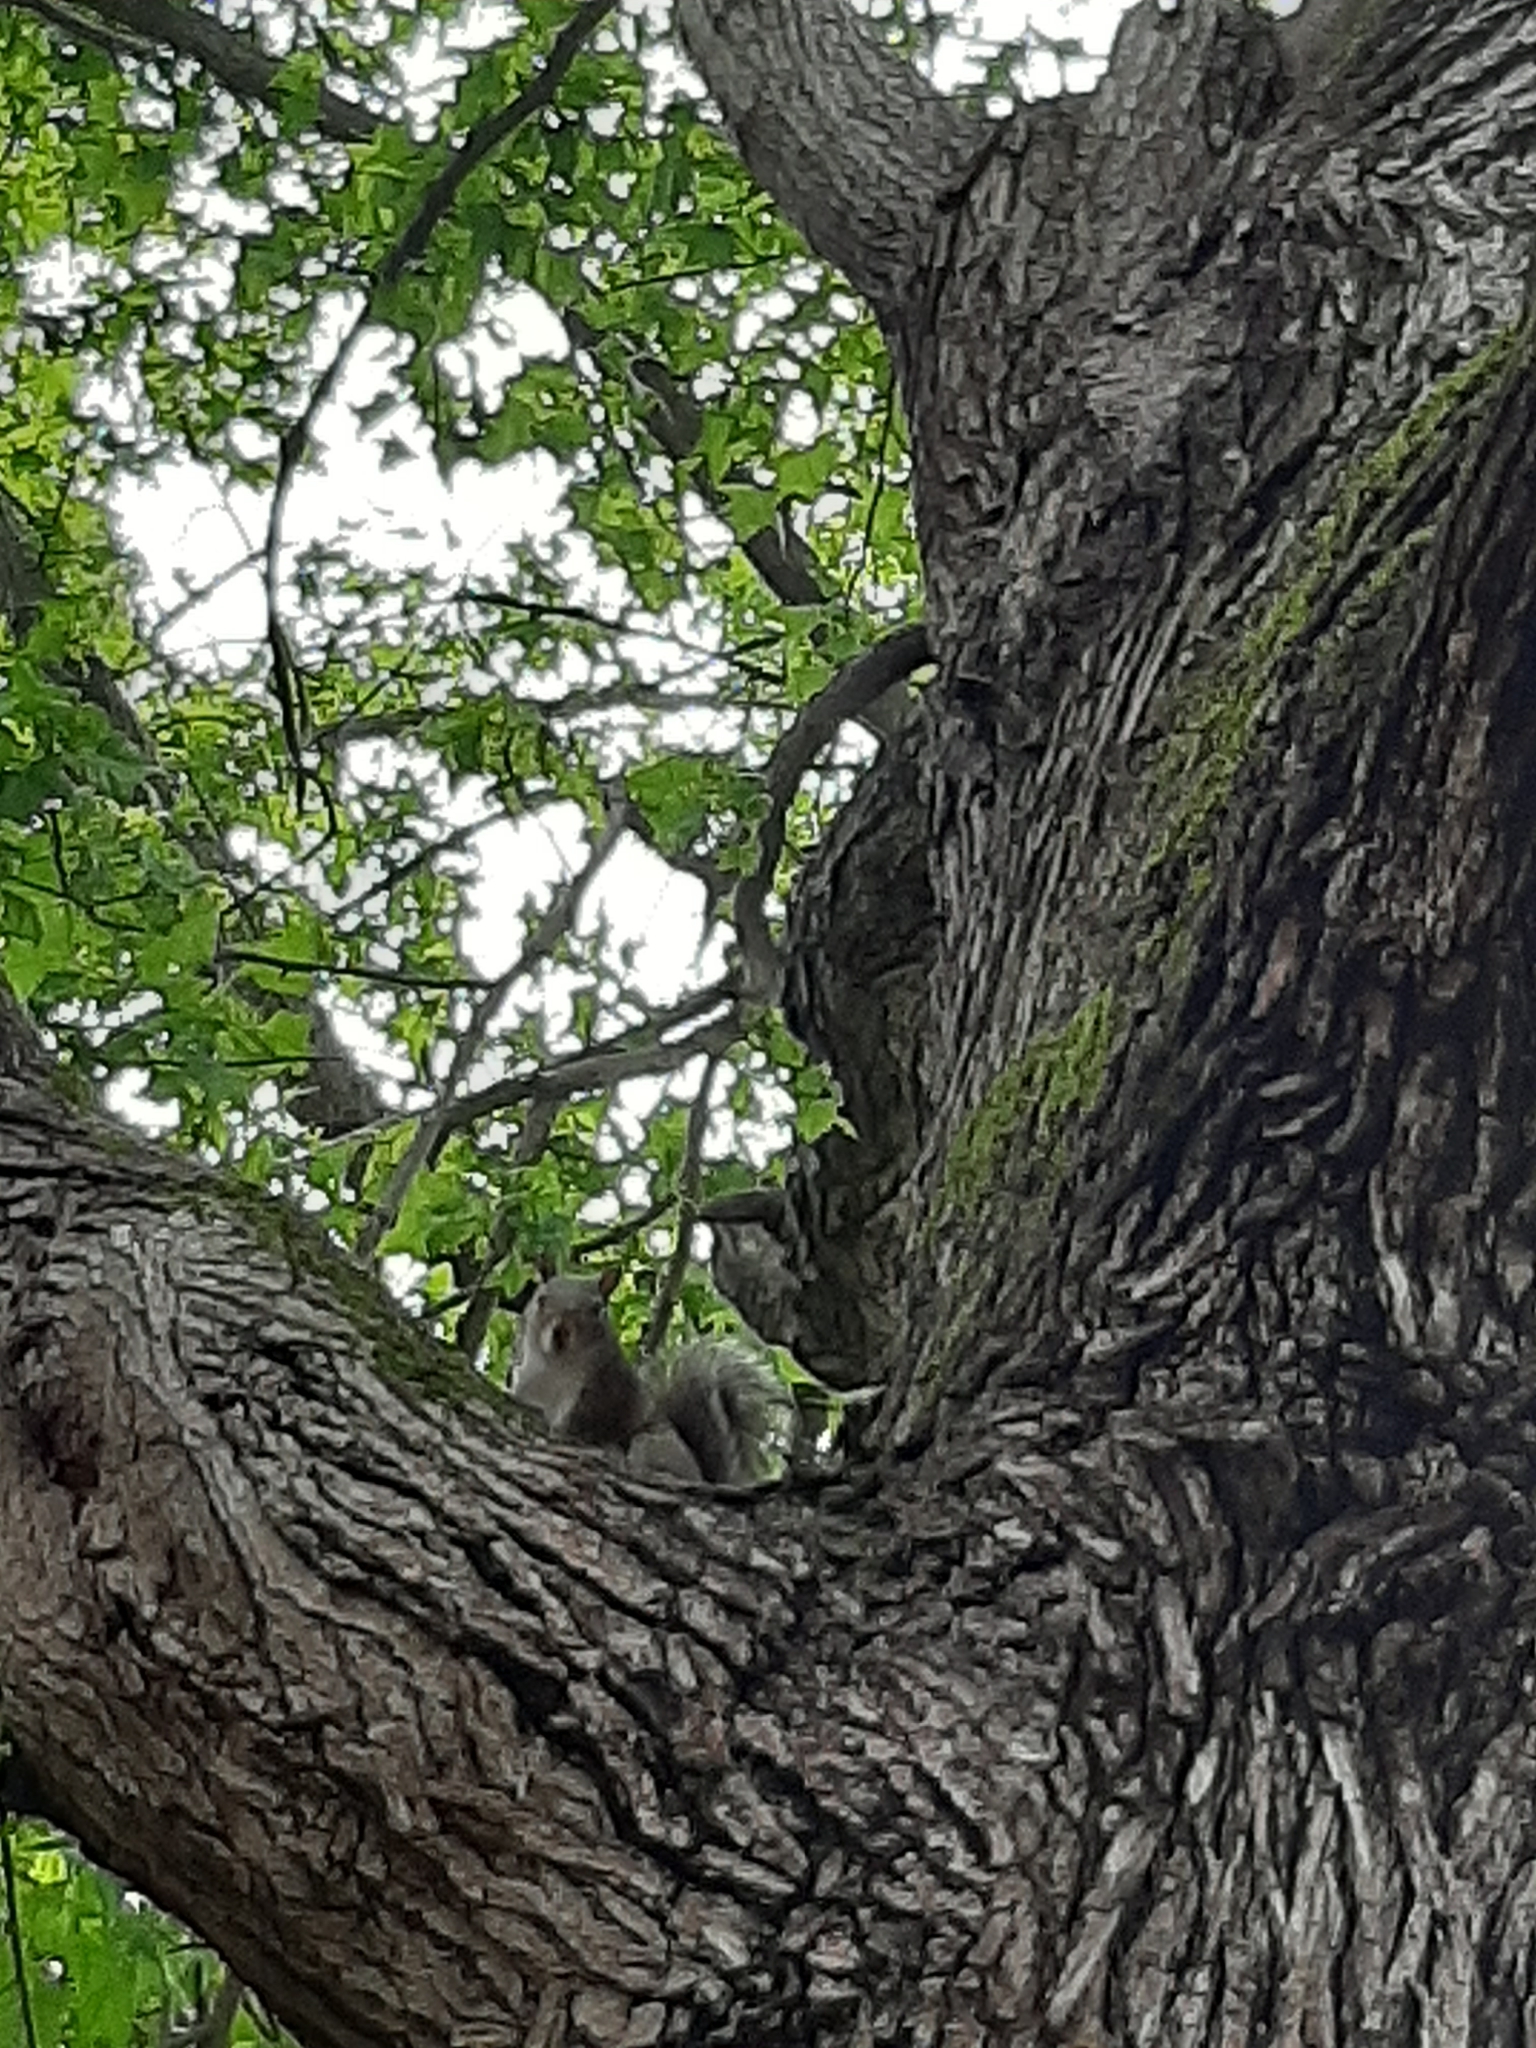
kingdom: Animalia
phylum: Chordata
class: Mammalia
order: Rodentia
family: Sciuridae
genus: Sciurus
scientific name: Sciurus carolinensis
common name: Eastern gray squirrel
